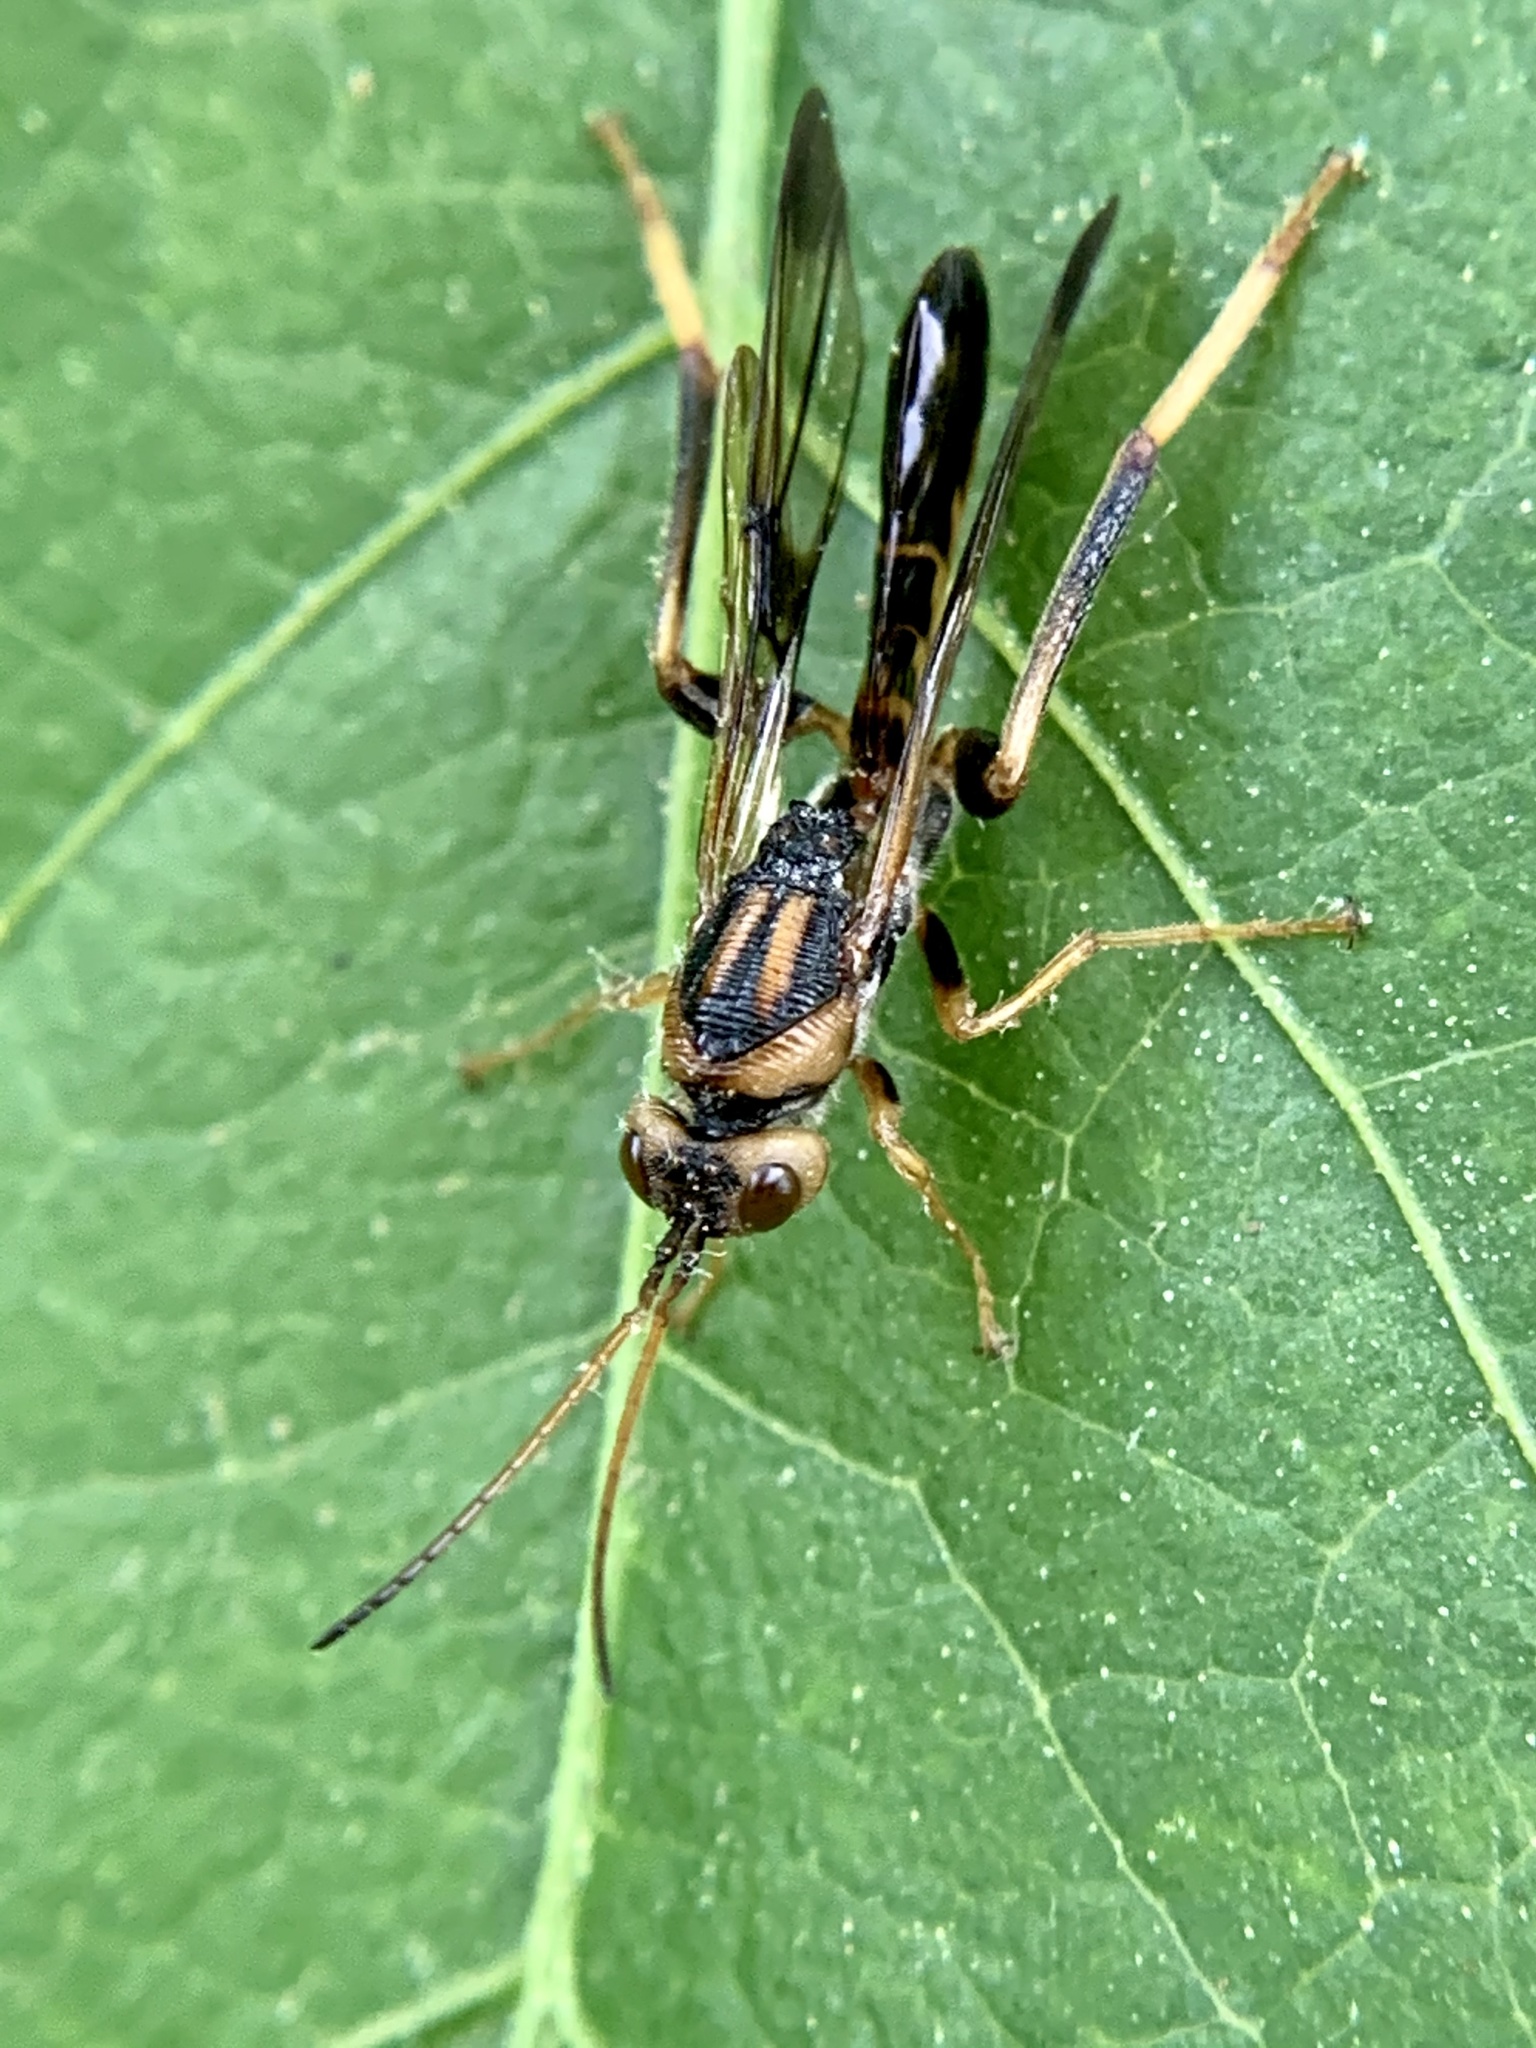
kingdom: Animalia
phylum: Arthropoda
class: Insecta
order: Hymenoptera
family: Ibaliidae
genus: Ibalia
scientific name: Ibalia anceps
